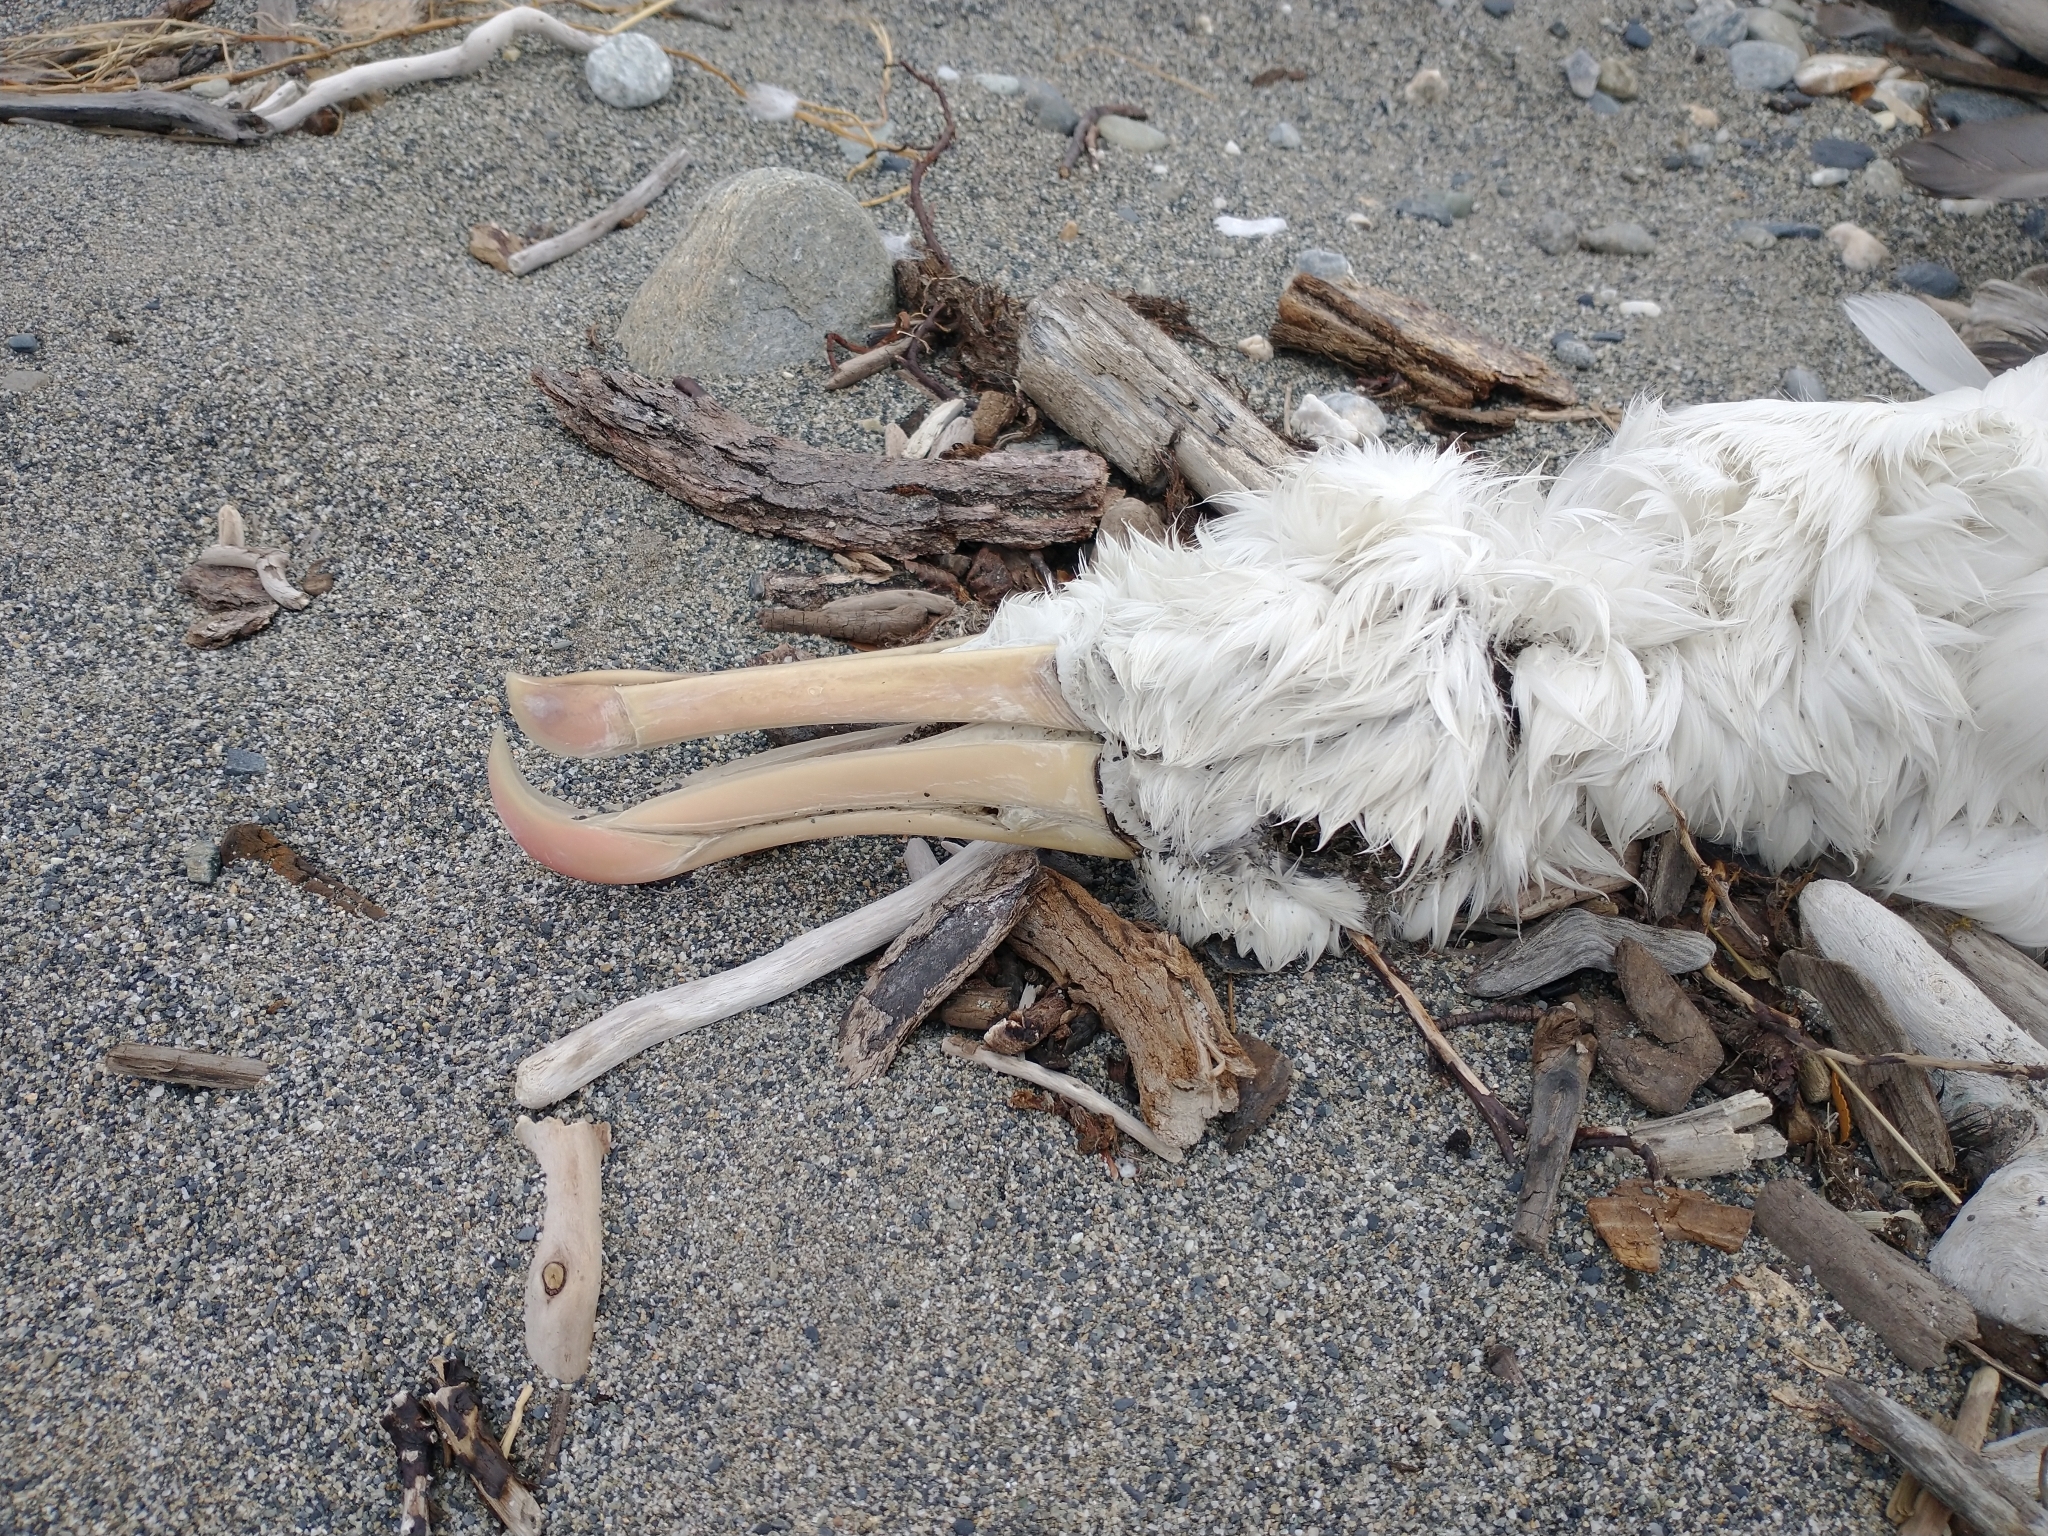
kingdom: Animalia
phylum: Chordata
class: Aves
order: Procellariiformes
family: Diomedeidae
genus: Thalassarche
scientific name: Thalassarche melanophris
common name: Black-browed albatross
